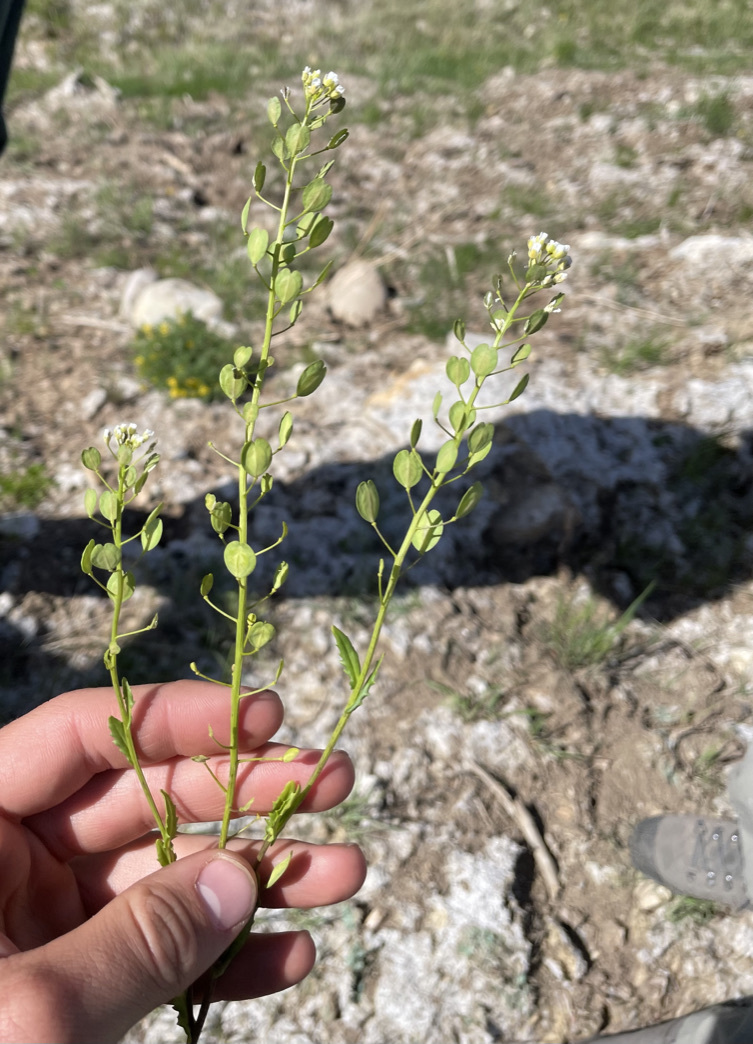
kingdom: Plantae
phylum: Tracheophyta
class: Magnoliopsida
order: Brassicales
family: Brassicaceae
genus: Thlaspi
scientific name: Thlaspi arvense
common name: Field pennycress
